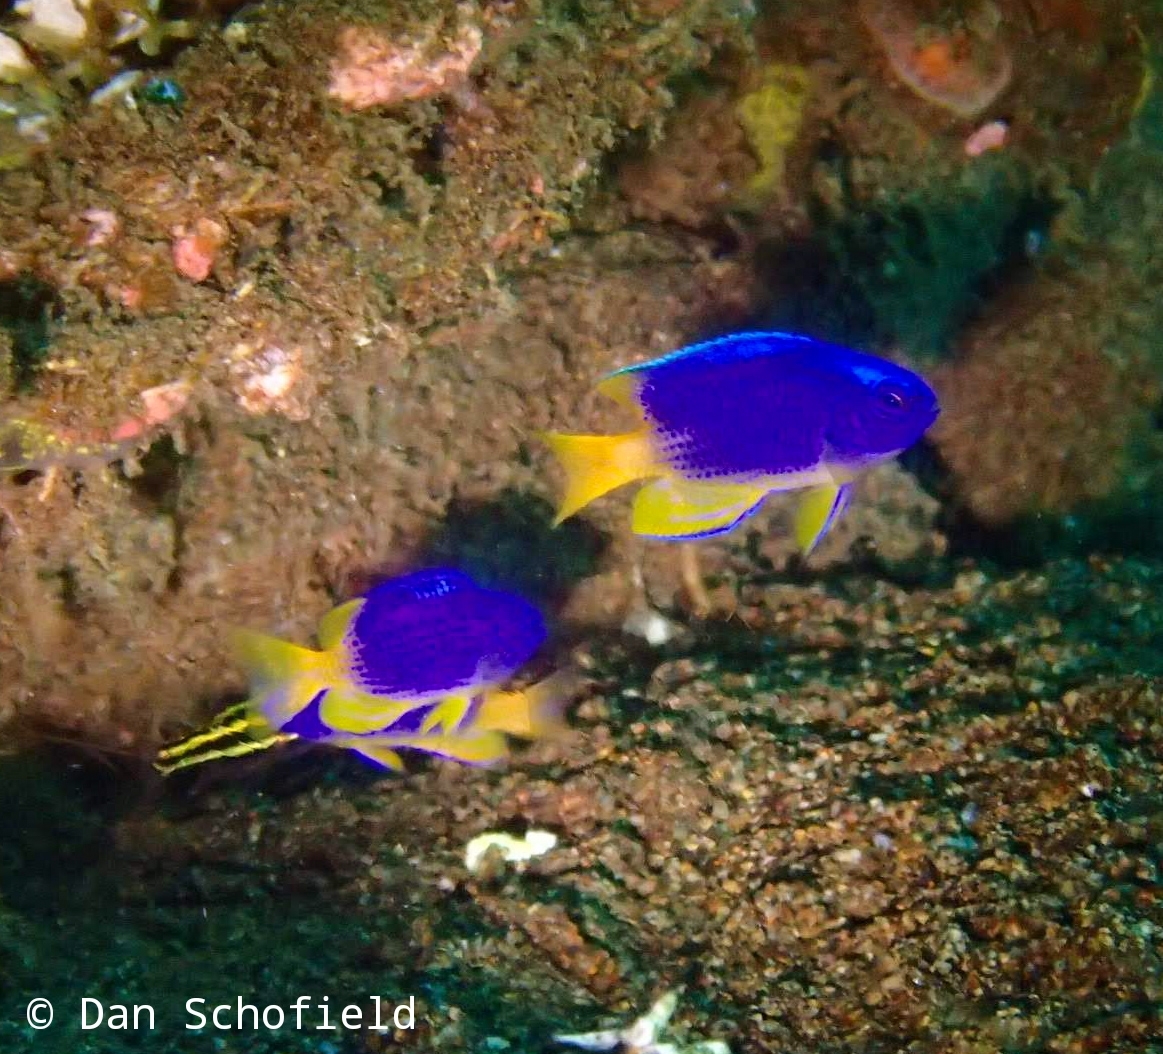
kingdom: Animalia
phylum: Chordata
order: Perciformes
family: Pomacentridae
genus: Pomacentrus
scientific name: Pomacentrus coelestis
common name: Neon damsel
